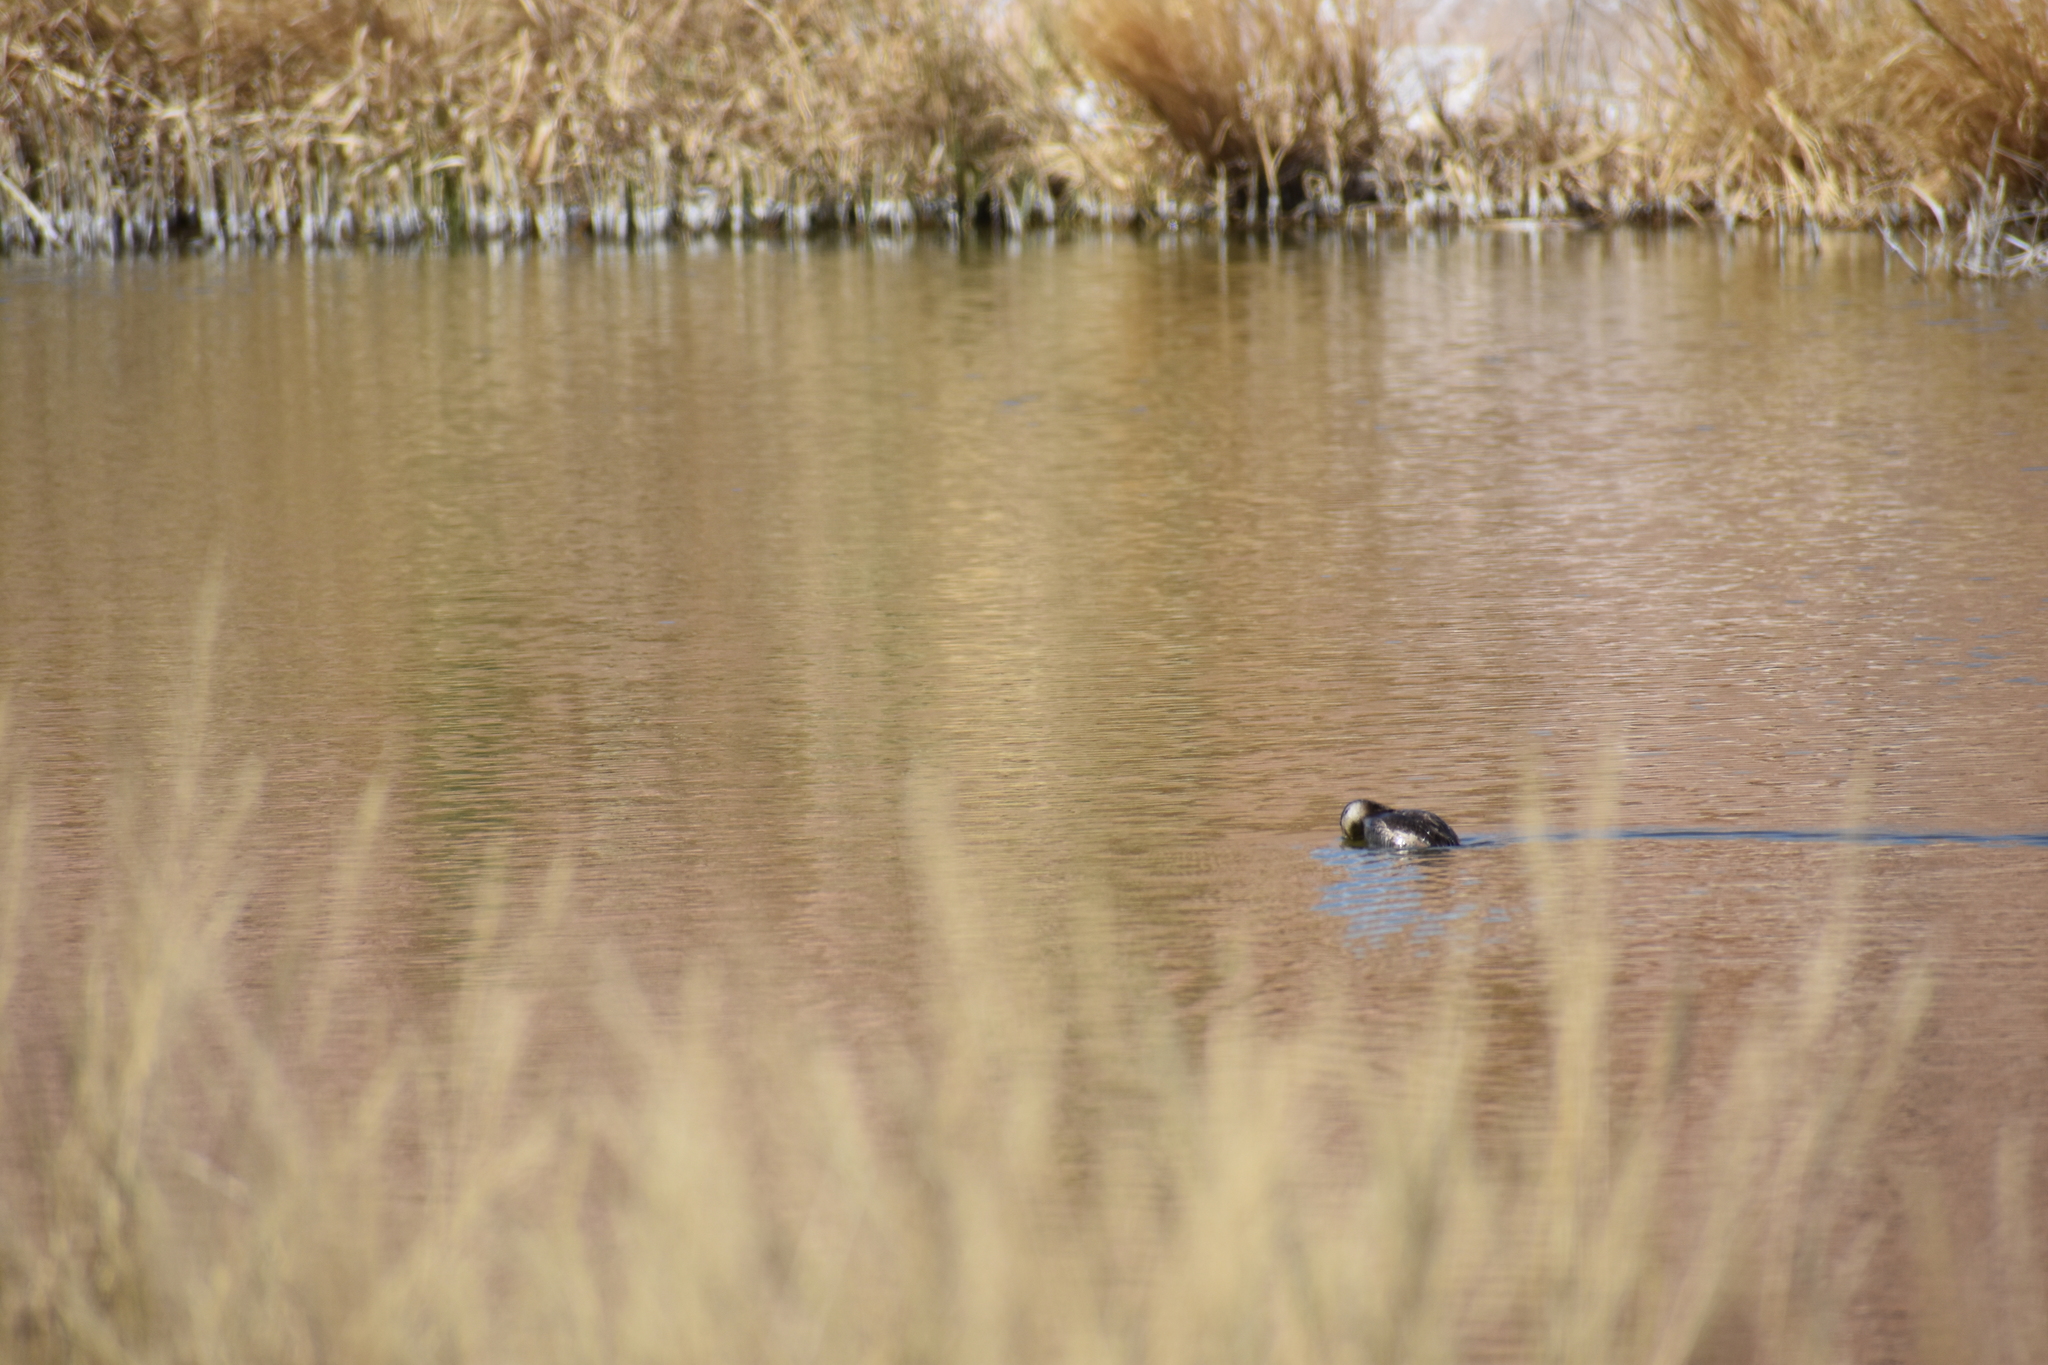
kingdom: Animalia
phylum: Chordata
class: Aves
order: Anseriformes
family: Anatidae
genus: Oxyura
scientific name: Oxyura jamaicensis
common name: Ruddy duck
